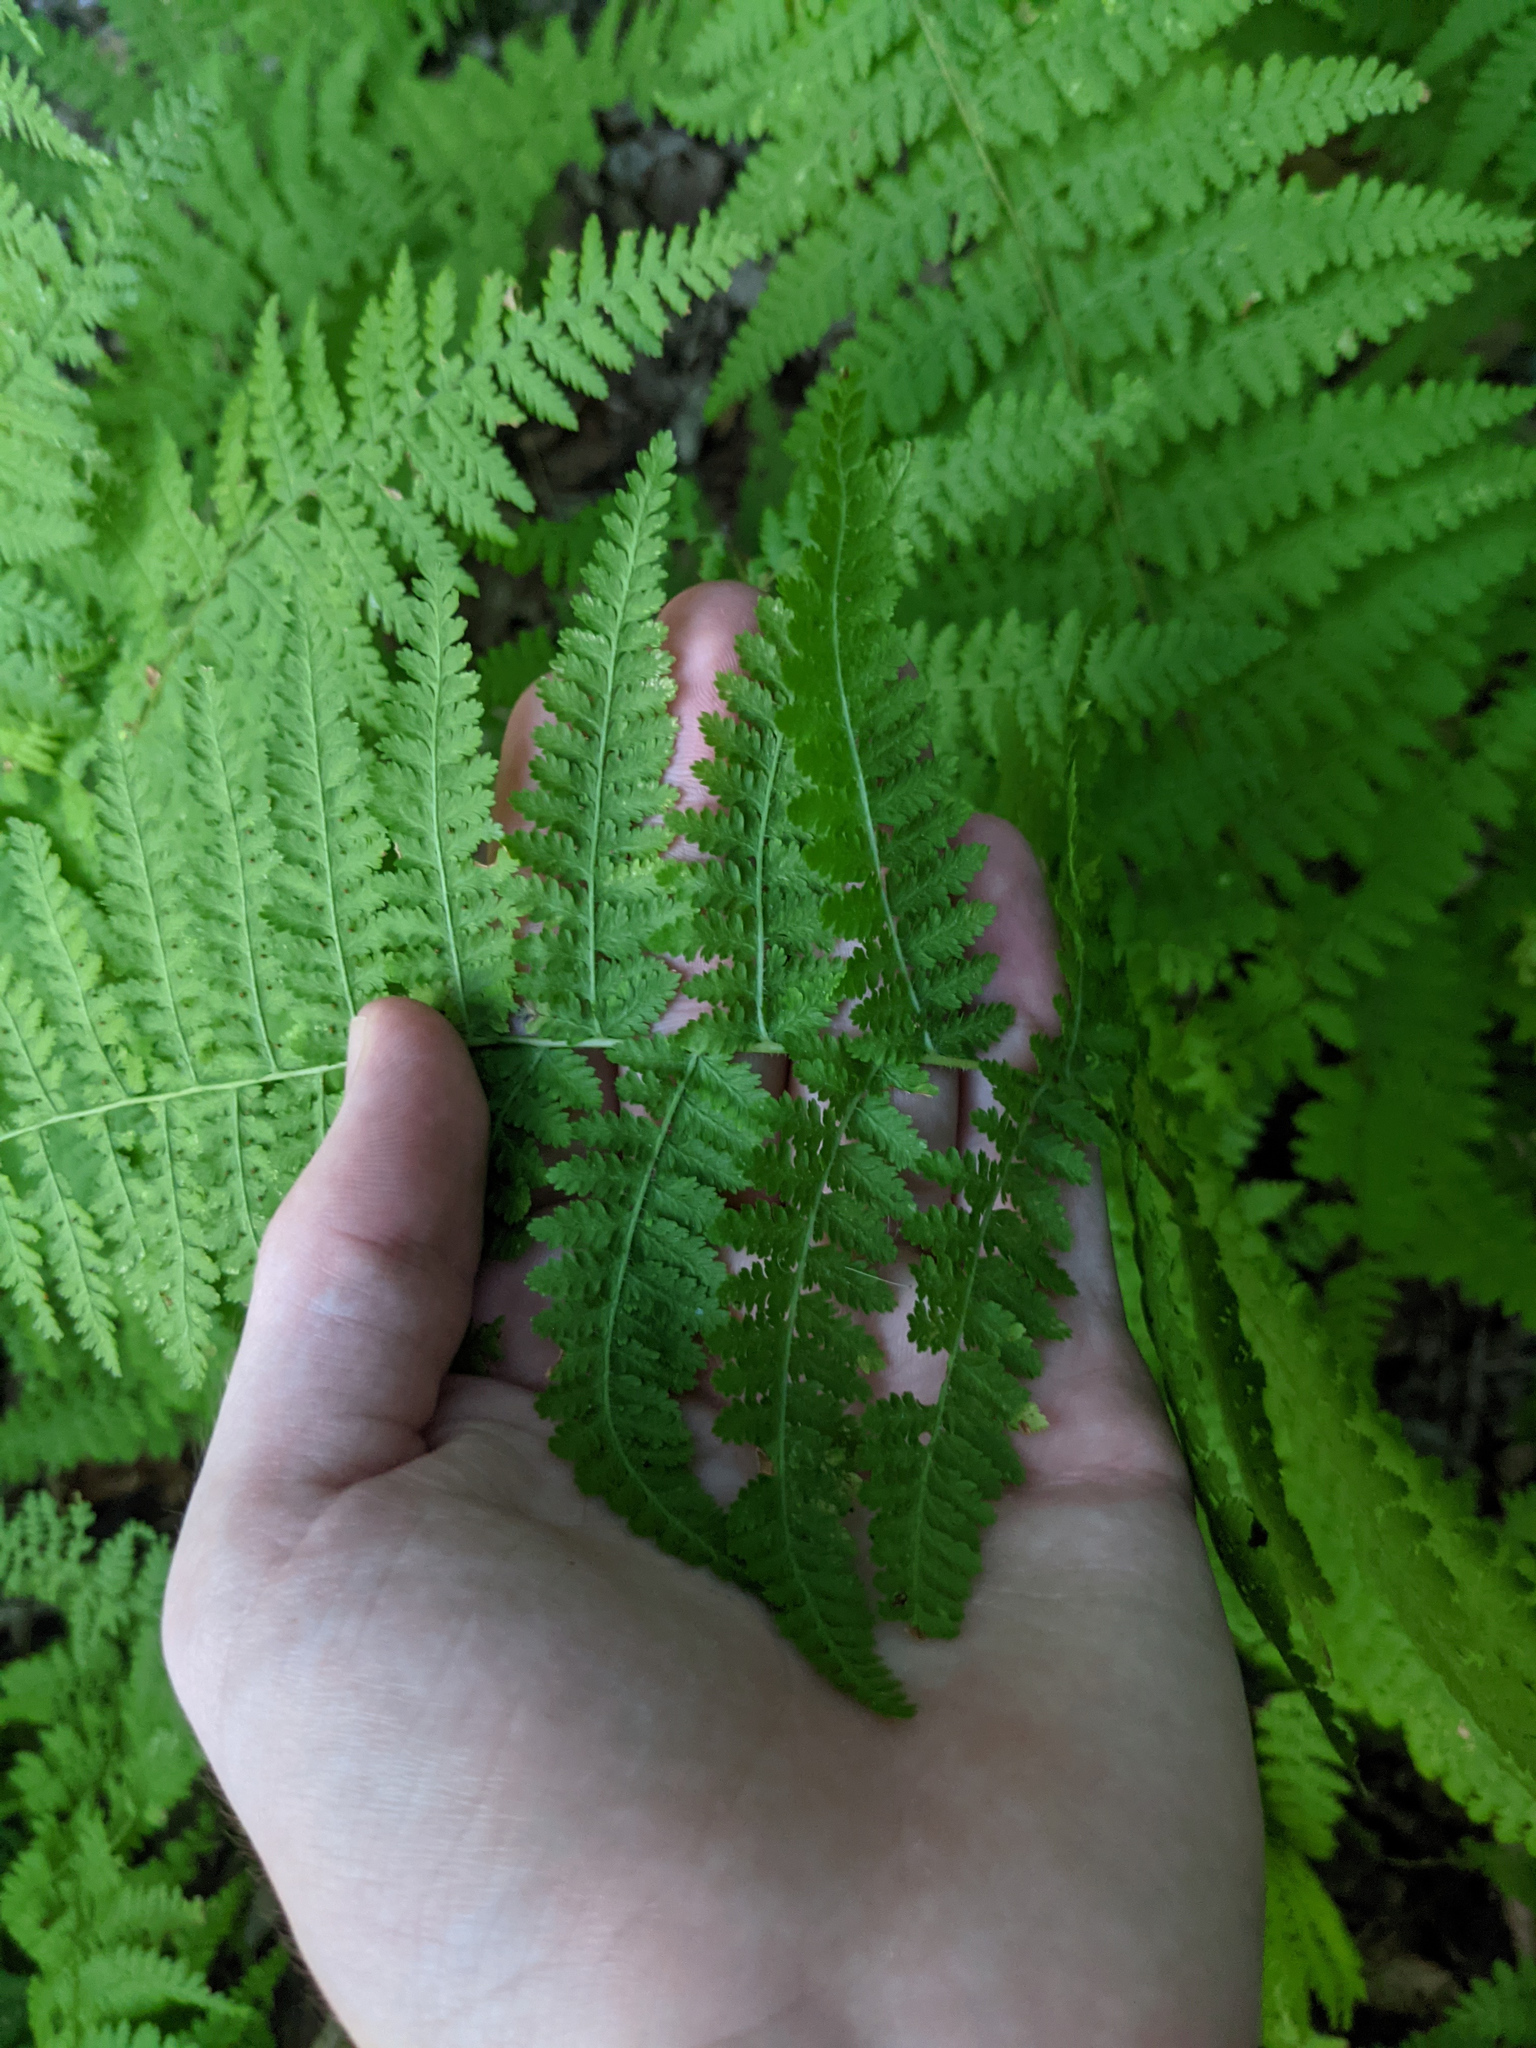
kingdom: Plantae
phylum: Tracheophyta
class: Polypodiopsida
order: Polypodiales
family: Dennstaedtiaceae
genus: Sitobolium
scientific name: Sitobolium punctilobum
